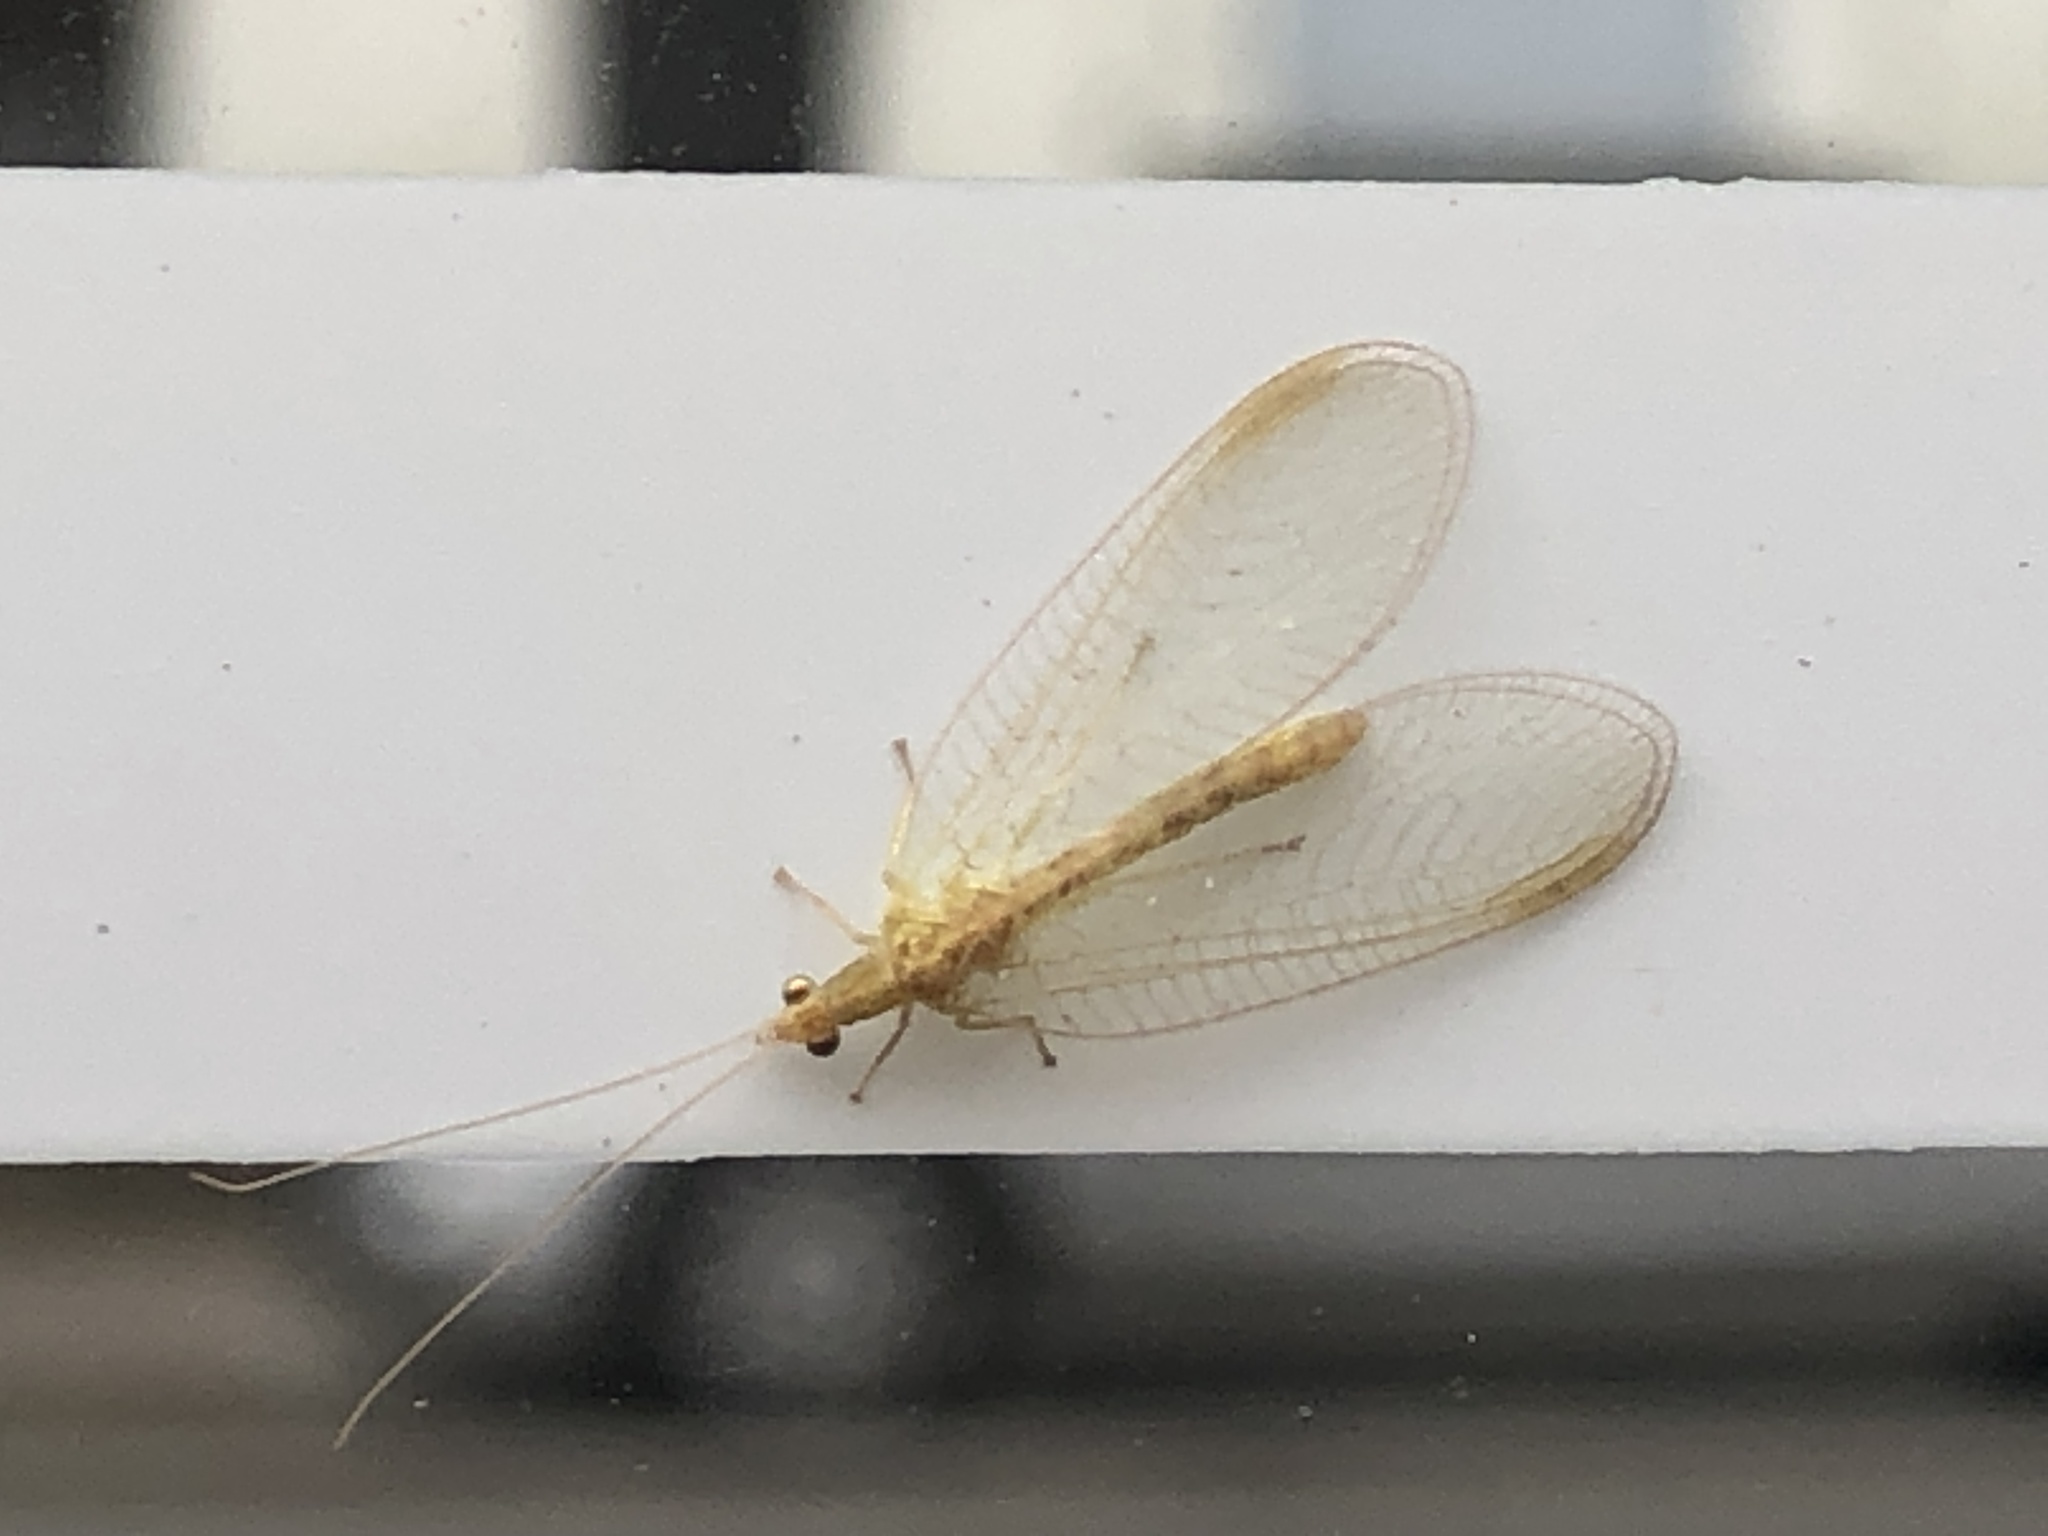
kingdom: Animalia
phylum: Arthropoda
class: Insecta
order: Neuroptera
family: Chrysopidae
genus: Chrysoperla
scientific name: Chrysoperla
